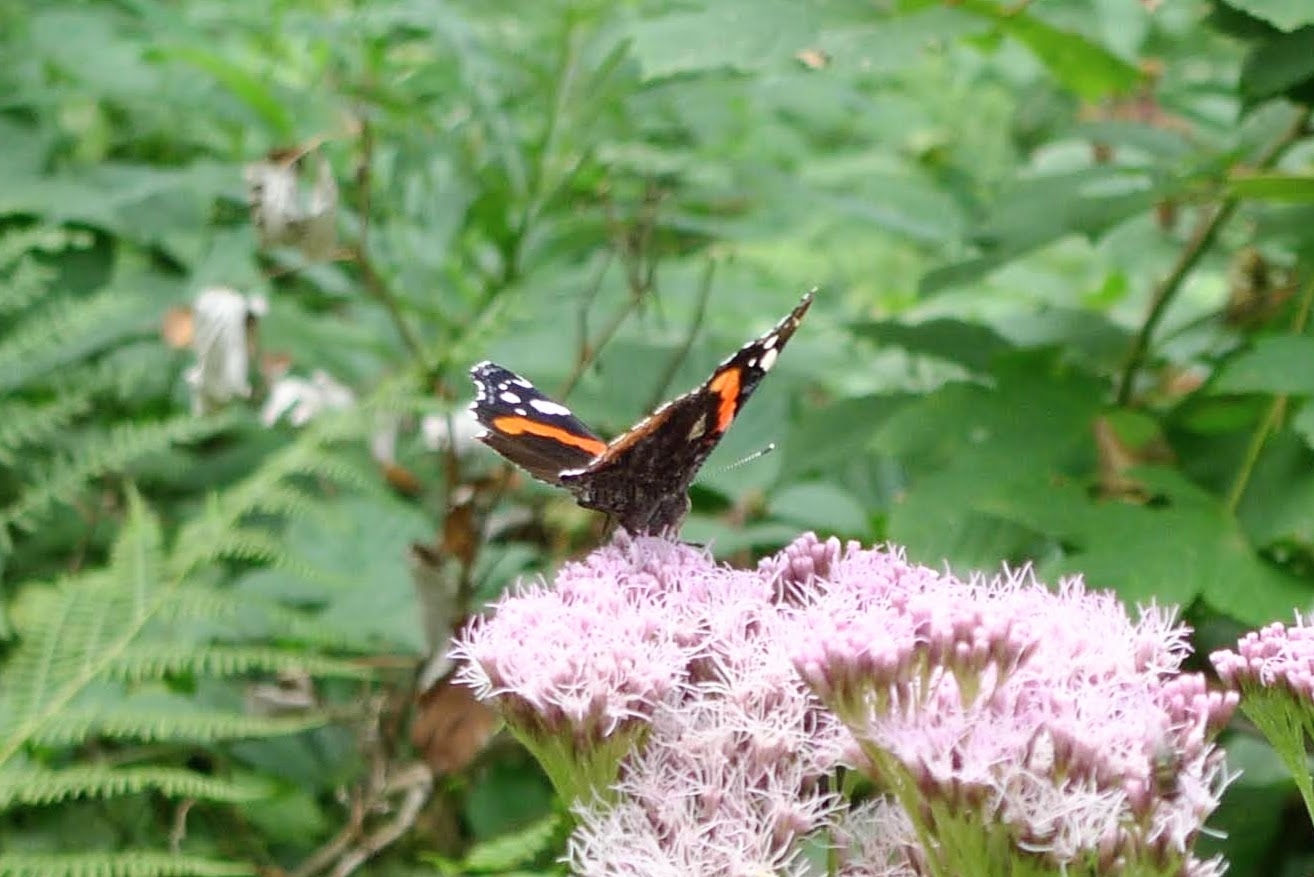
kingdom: Animalia
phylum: Arthropoda
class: Insecta
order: Lepidoptera
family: Nymphalidae
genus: Vanessa
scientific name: Vanessa atalanta
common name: Red admiral
